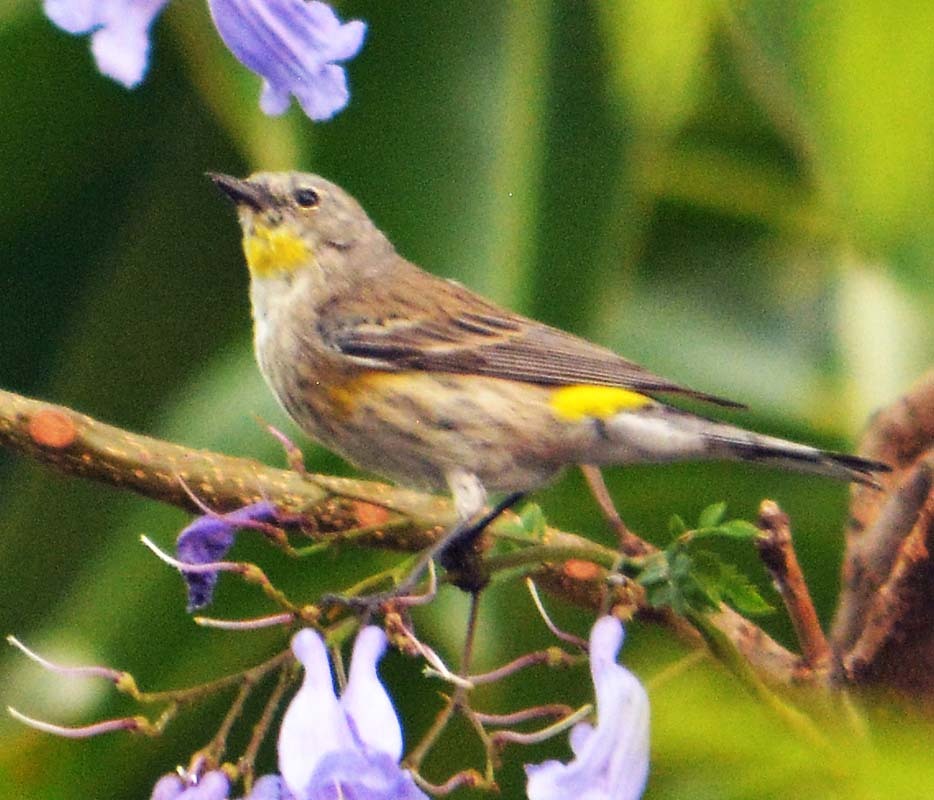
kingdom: Animalia
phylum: Chordata
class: Aves
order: Passeriformes
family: Parulidae
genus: Setophaga
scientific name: Setophaga auduboni
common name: Audubon's warbler
